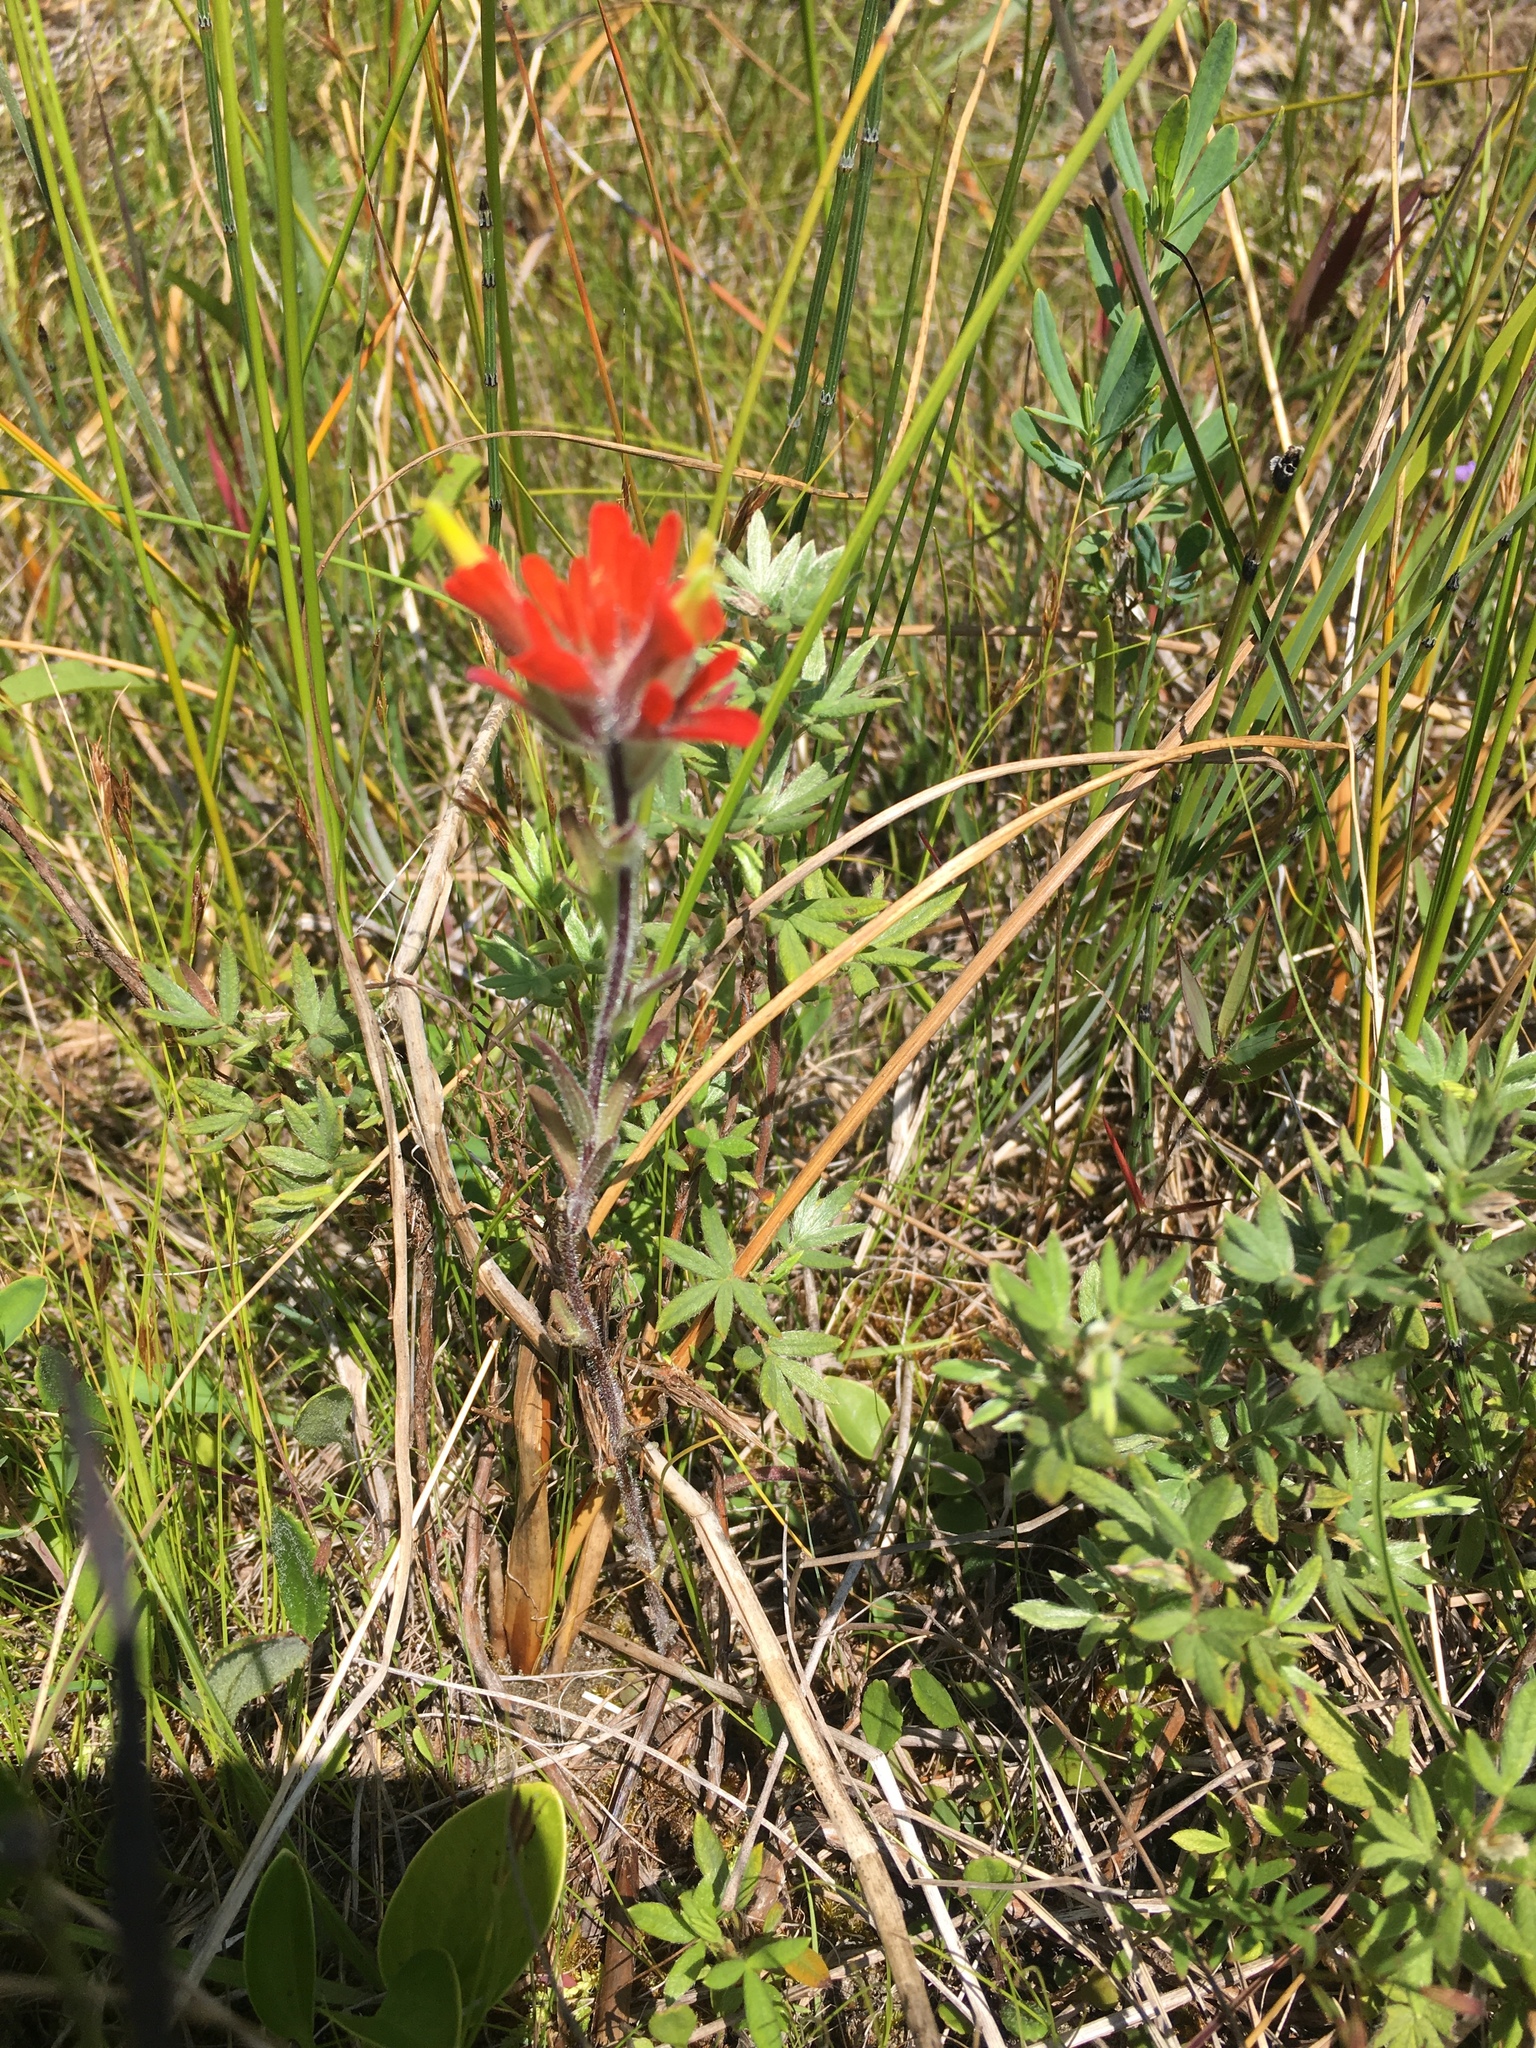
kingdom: Plantae
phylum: Tracheophyta
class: Magnoliopsida
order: Lamiales
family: Orobanchaceae
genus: Castilleja
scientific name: Castilleja coccinea
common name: Scarlet paintbrush
